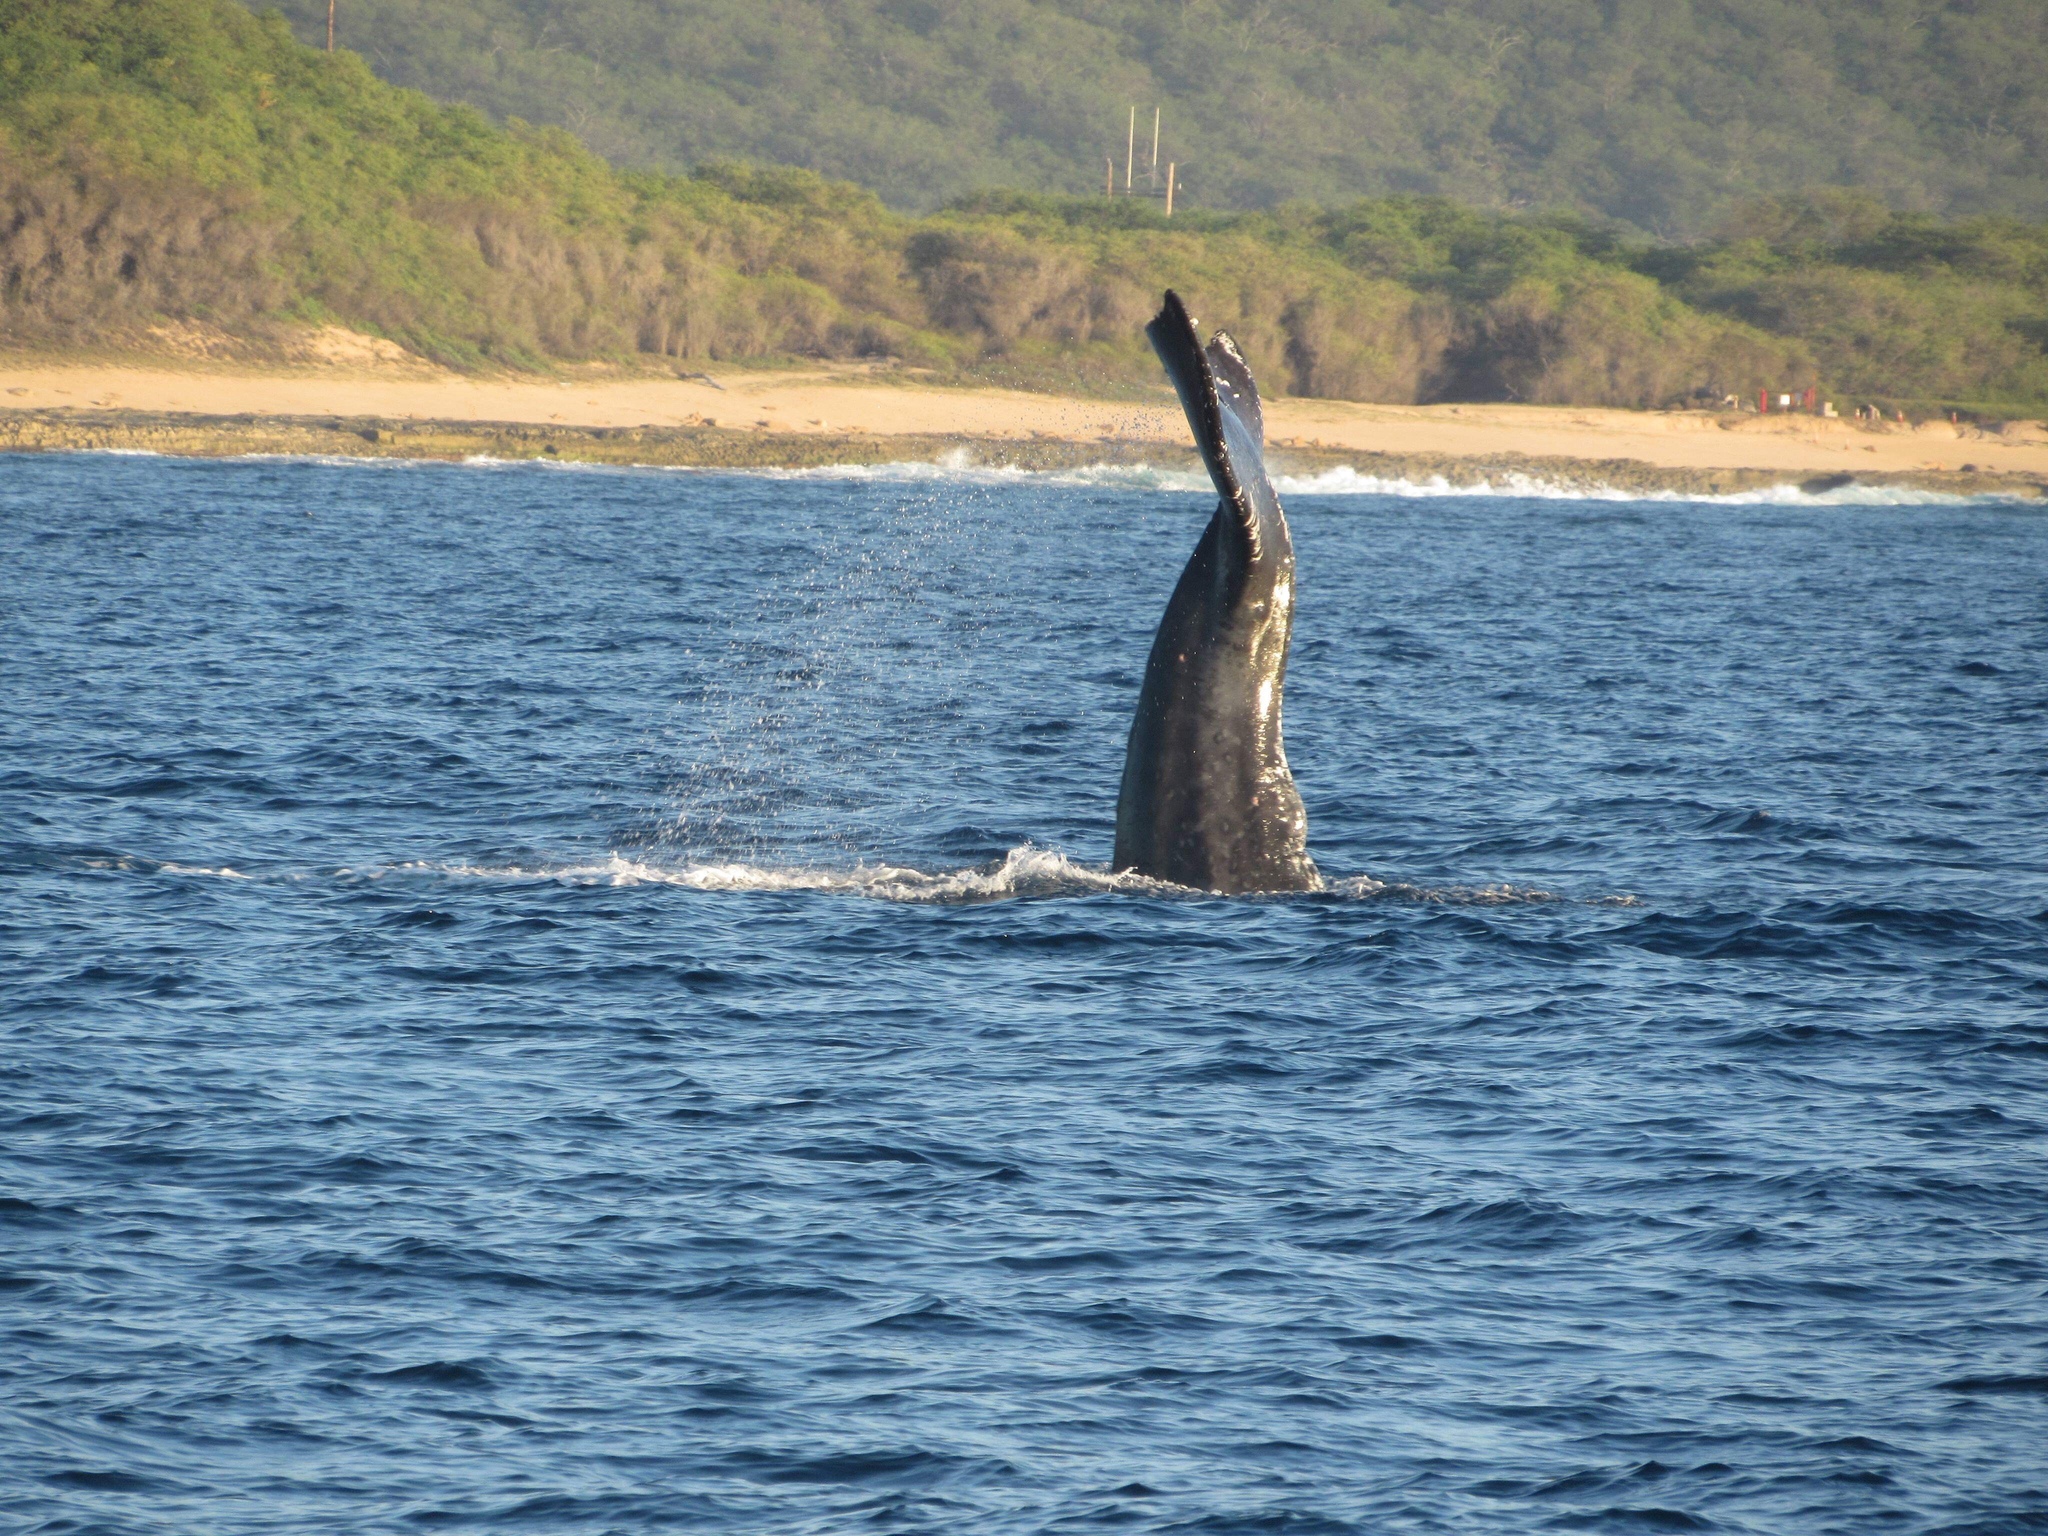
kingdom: Animalia
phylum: Chordata
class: Mammalia
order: Cetacea
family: Balaenopteridae
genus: Megaptera
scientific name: Megaptera novaeangliae
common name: Humpback whale
